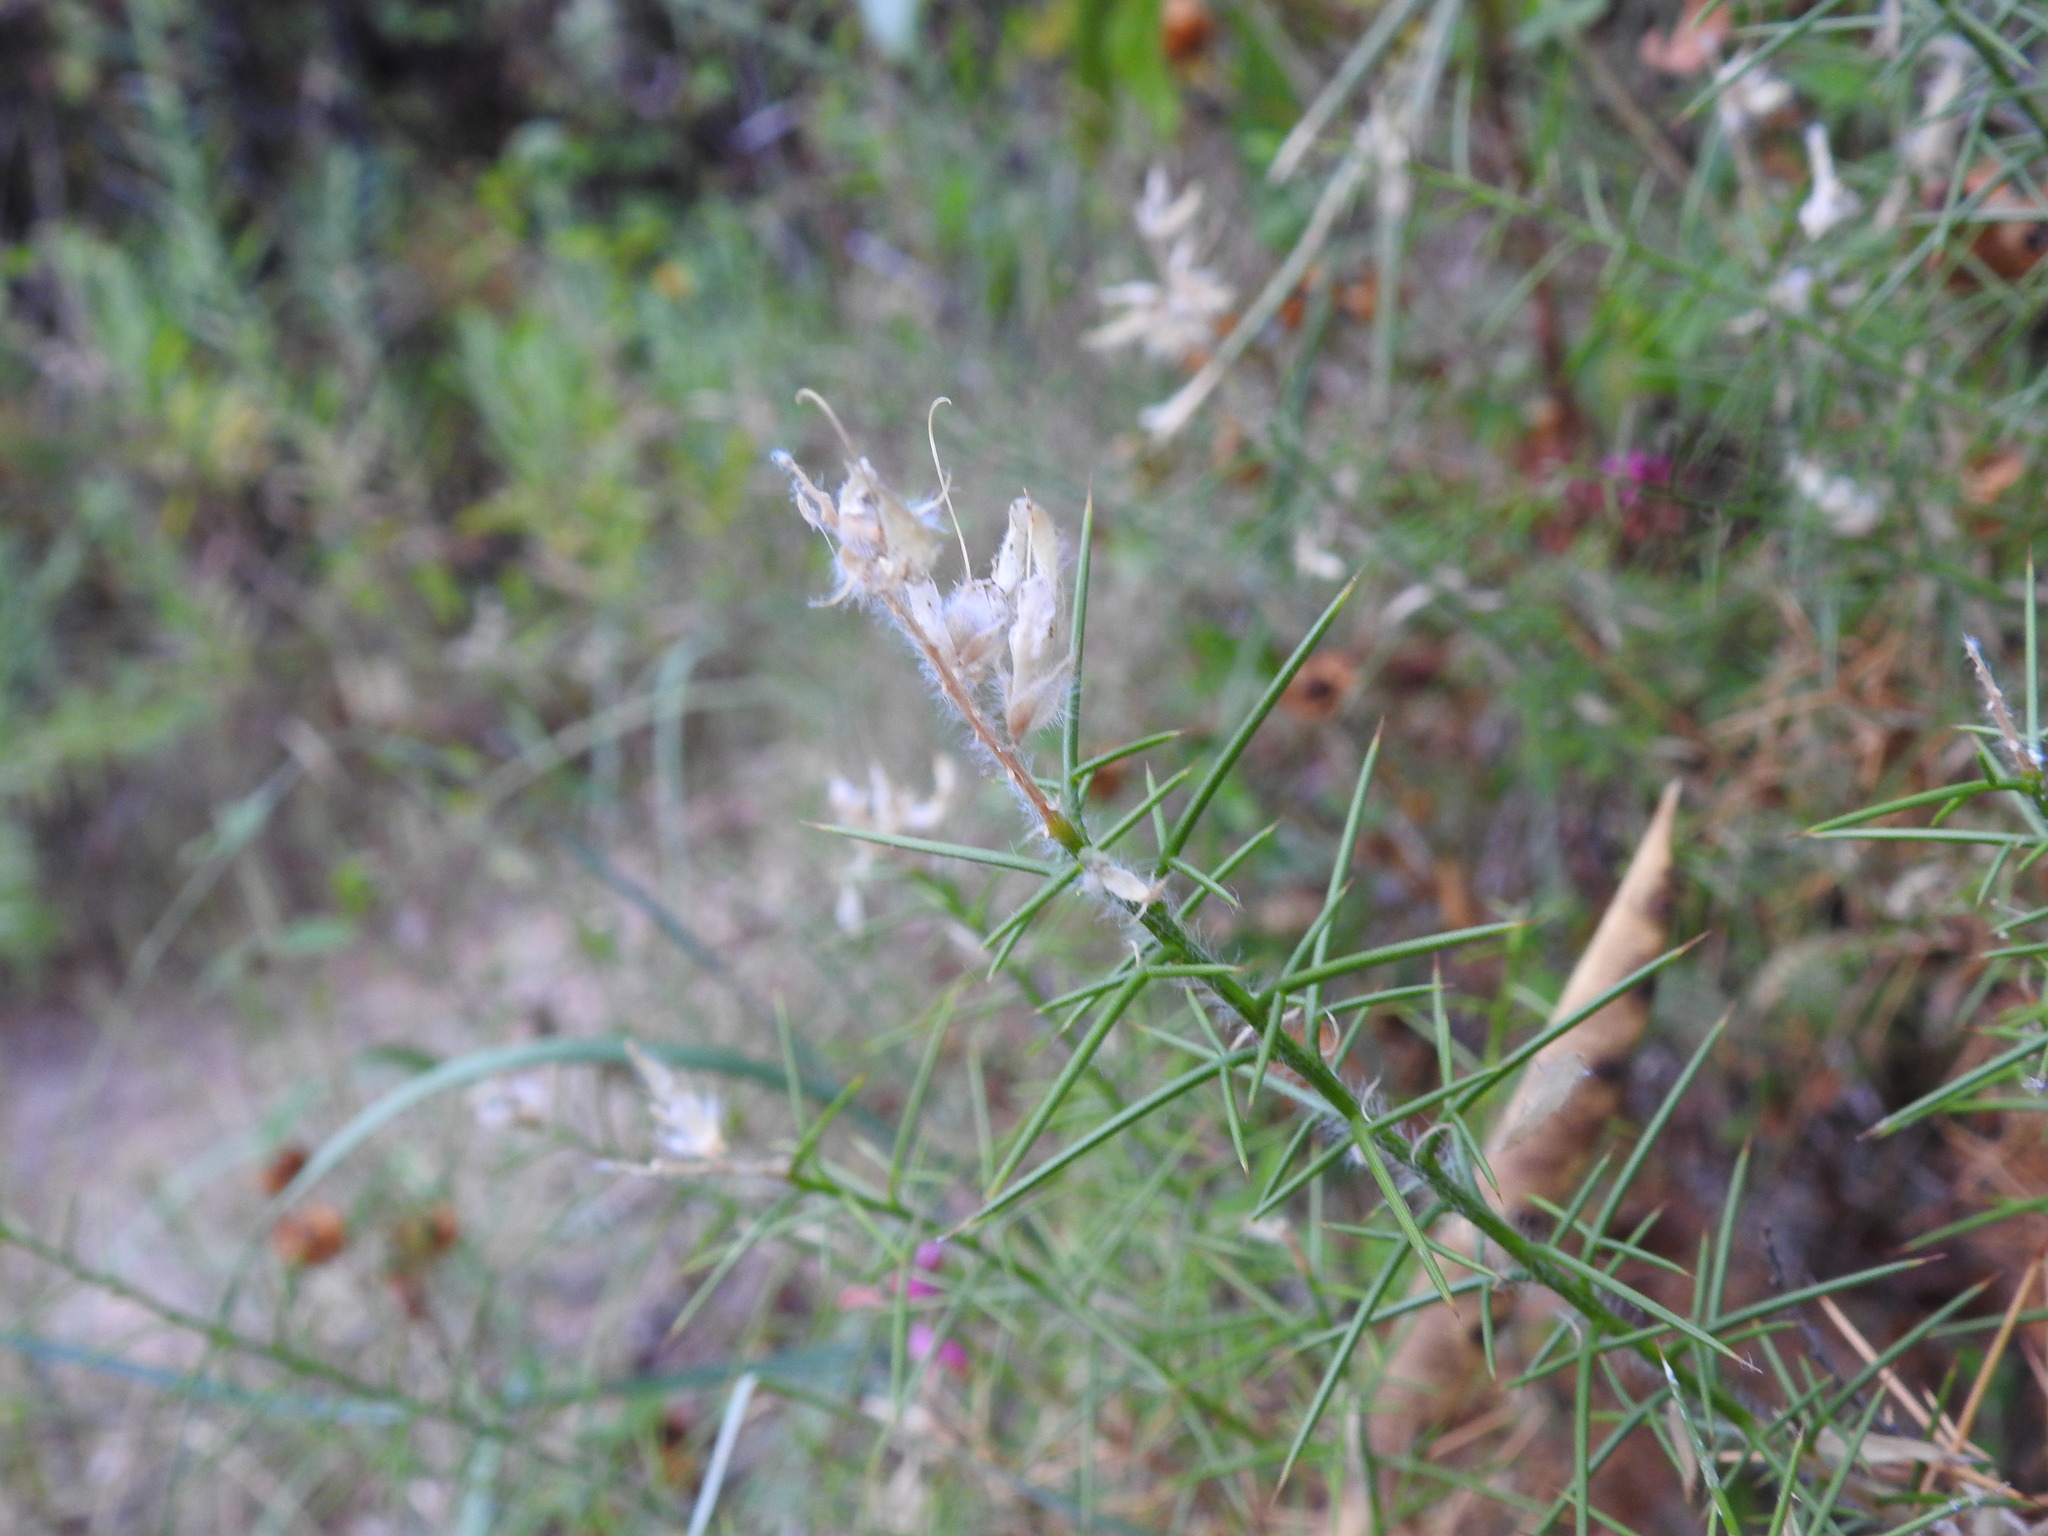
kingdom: Plantae
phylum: Tracheophyta
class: Magnoliopsida
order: Fabales
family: Fabaceae
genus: Genista
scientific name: Genista hirsuta
